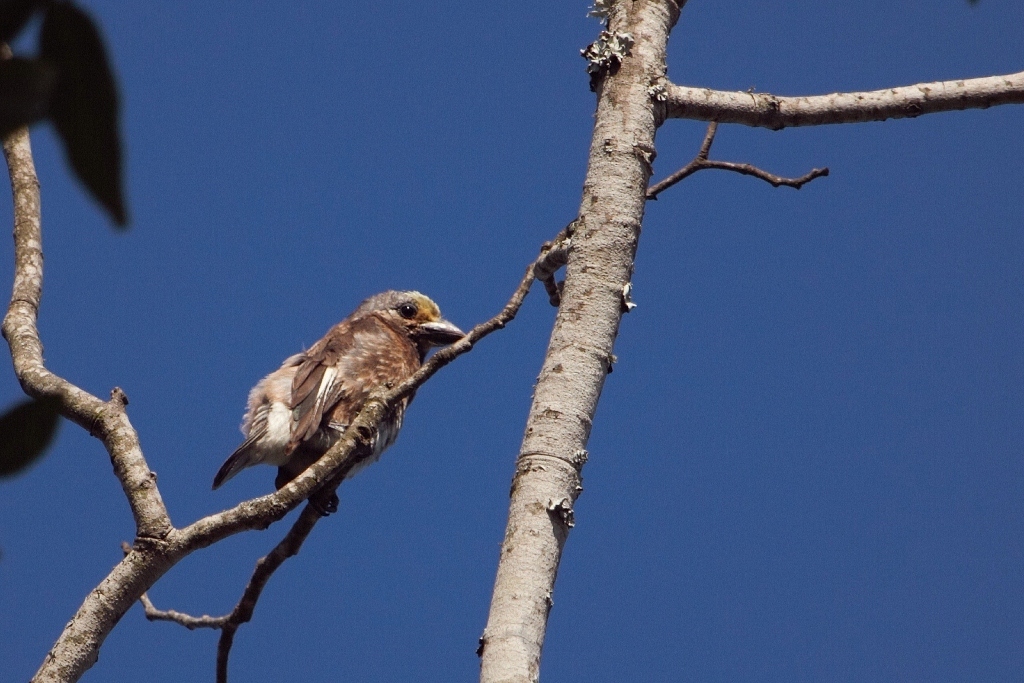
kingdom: Animalia
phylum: Chordata
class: Aves
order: Piciformes
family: Lybiidae
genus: Stactolaema
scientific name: Stactolaema whytii
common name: Whyte's barbet
